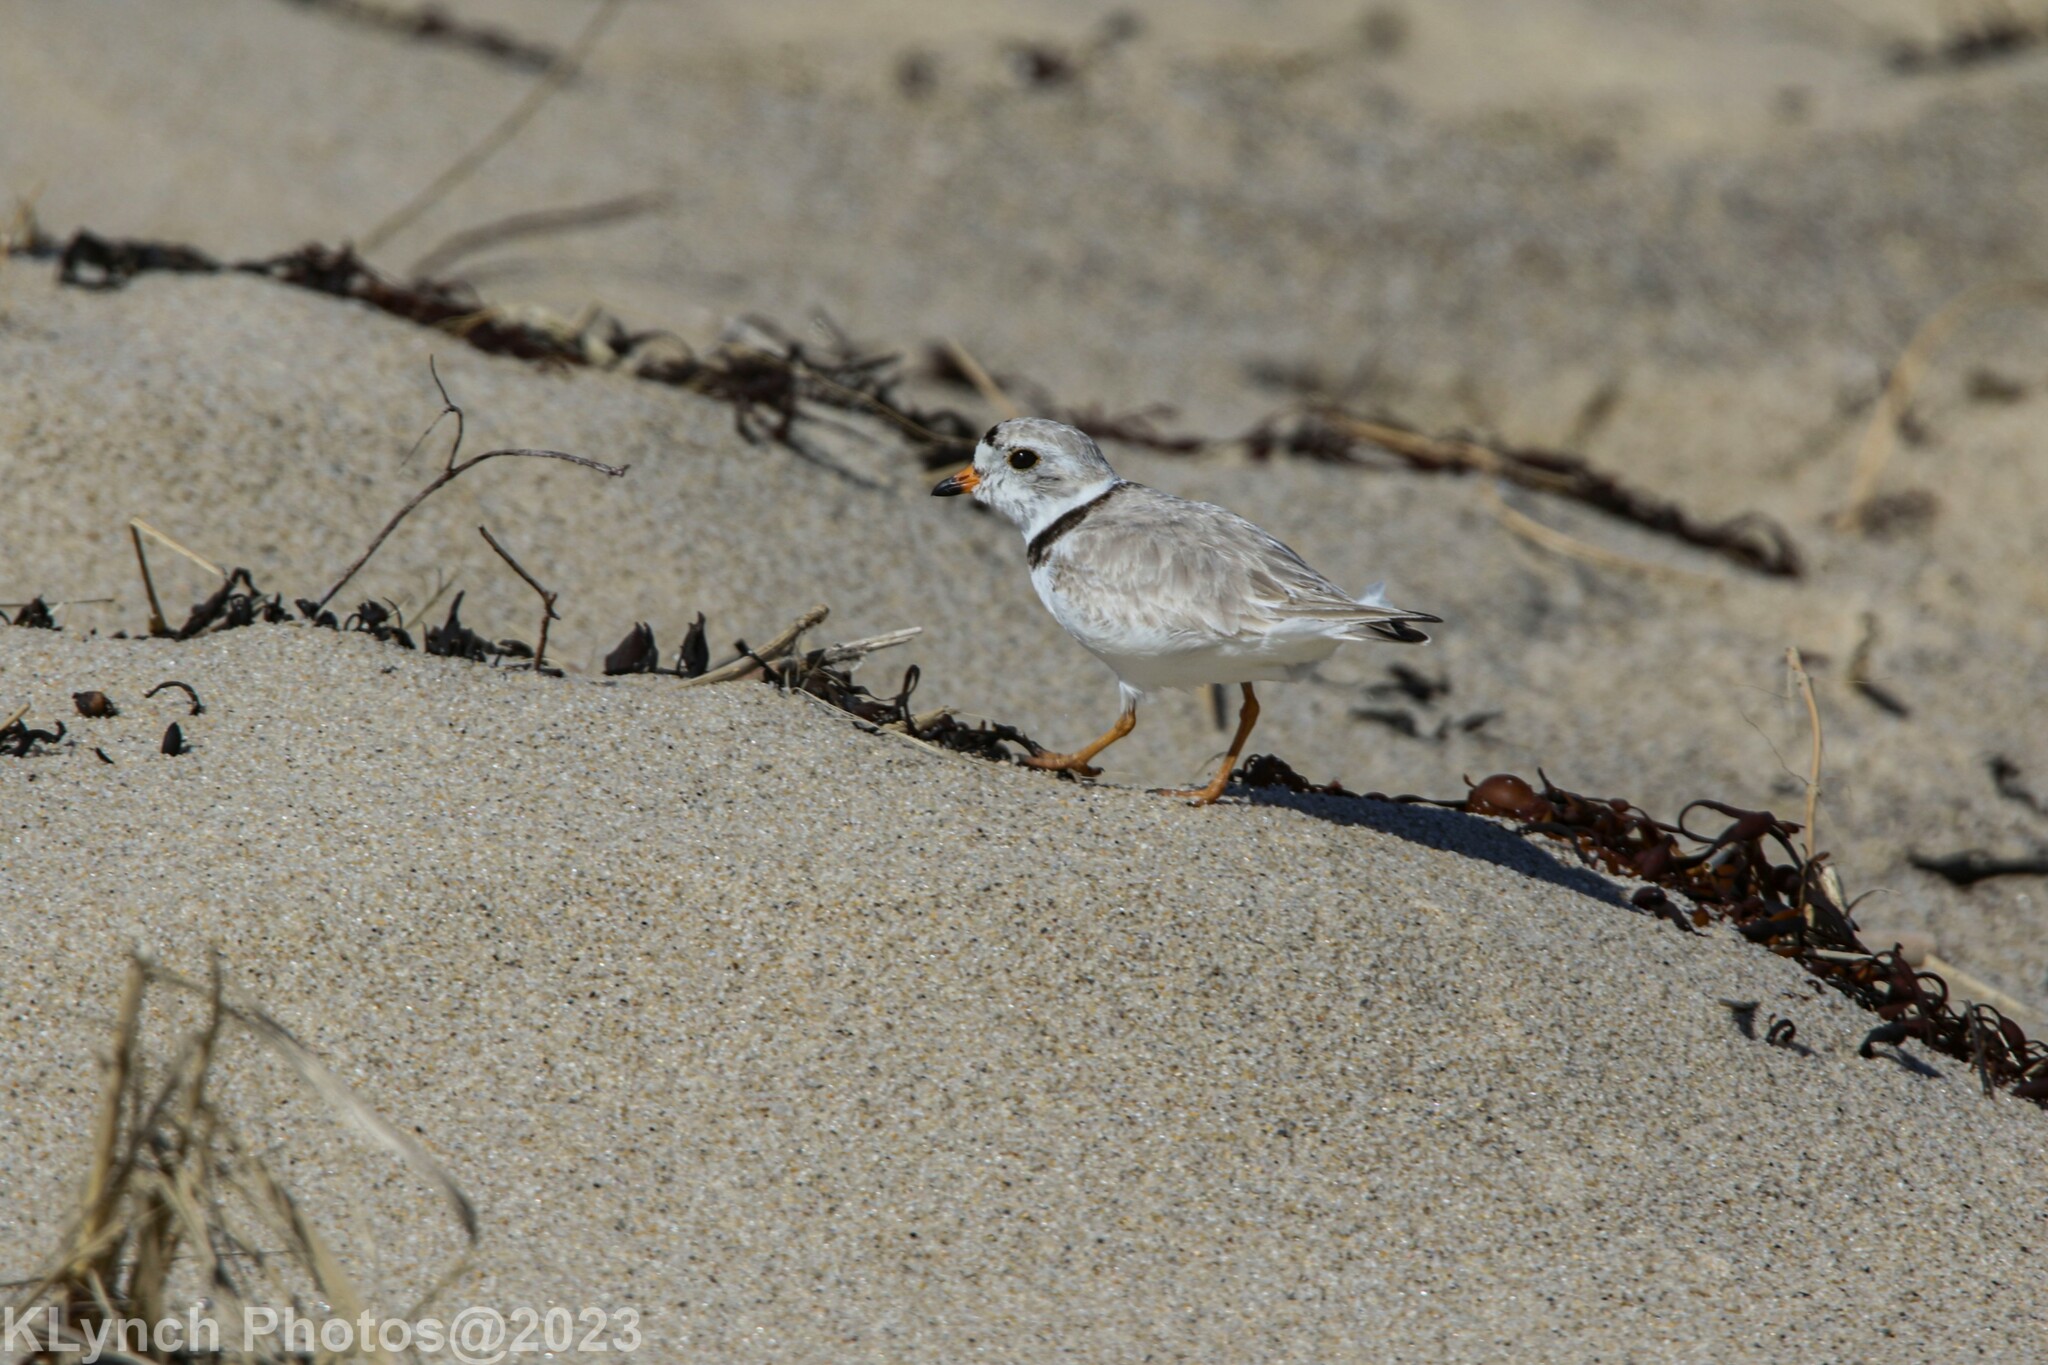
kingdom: Animalia
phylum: Chordata
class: Aves
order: Charadriiformes
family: Charadriidae
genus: Charadrius
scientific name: Charadrius melodus
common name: Piping plover
